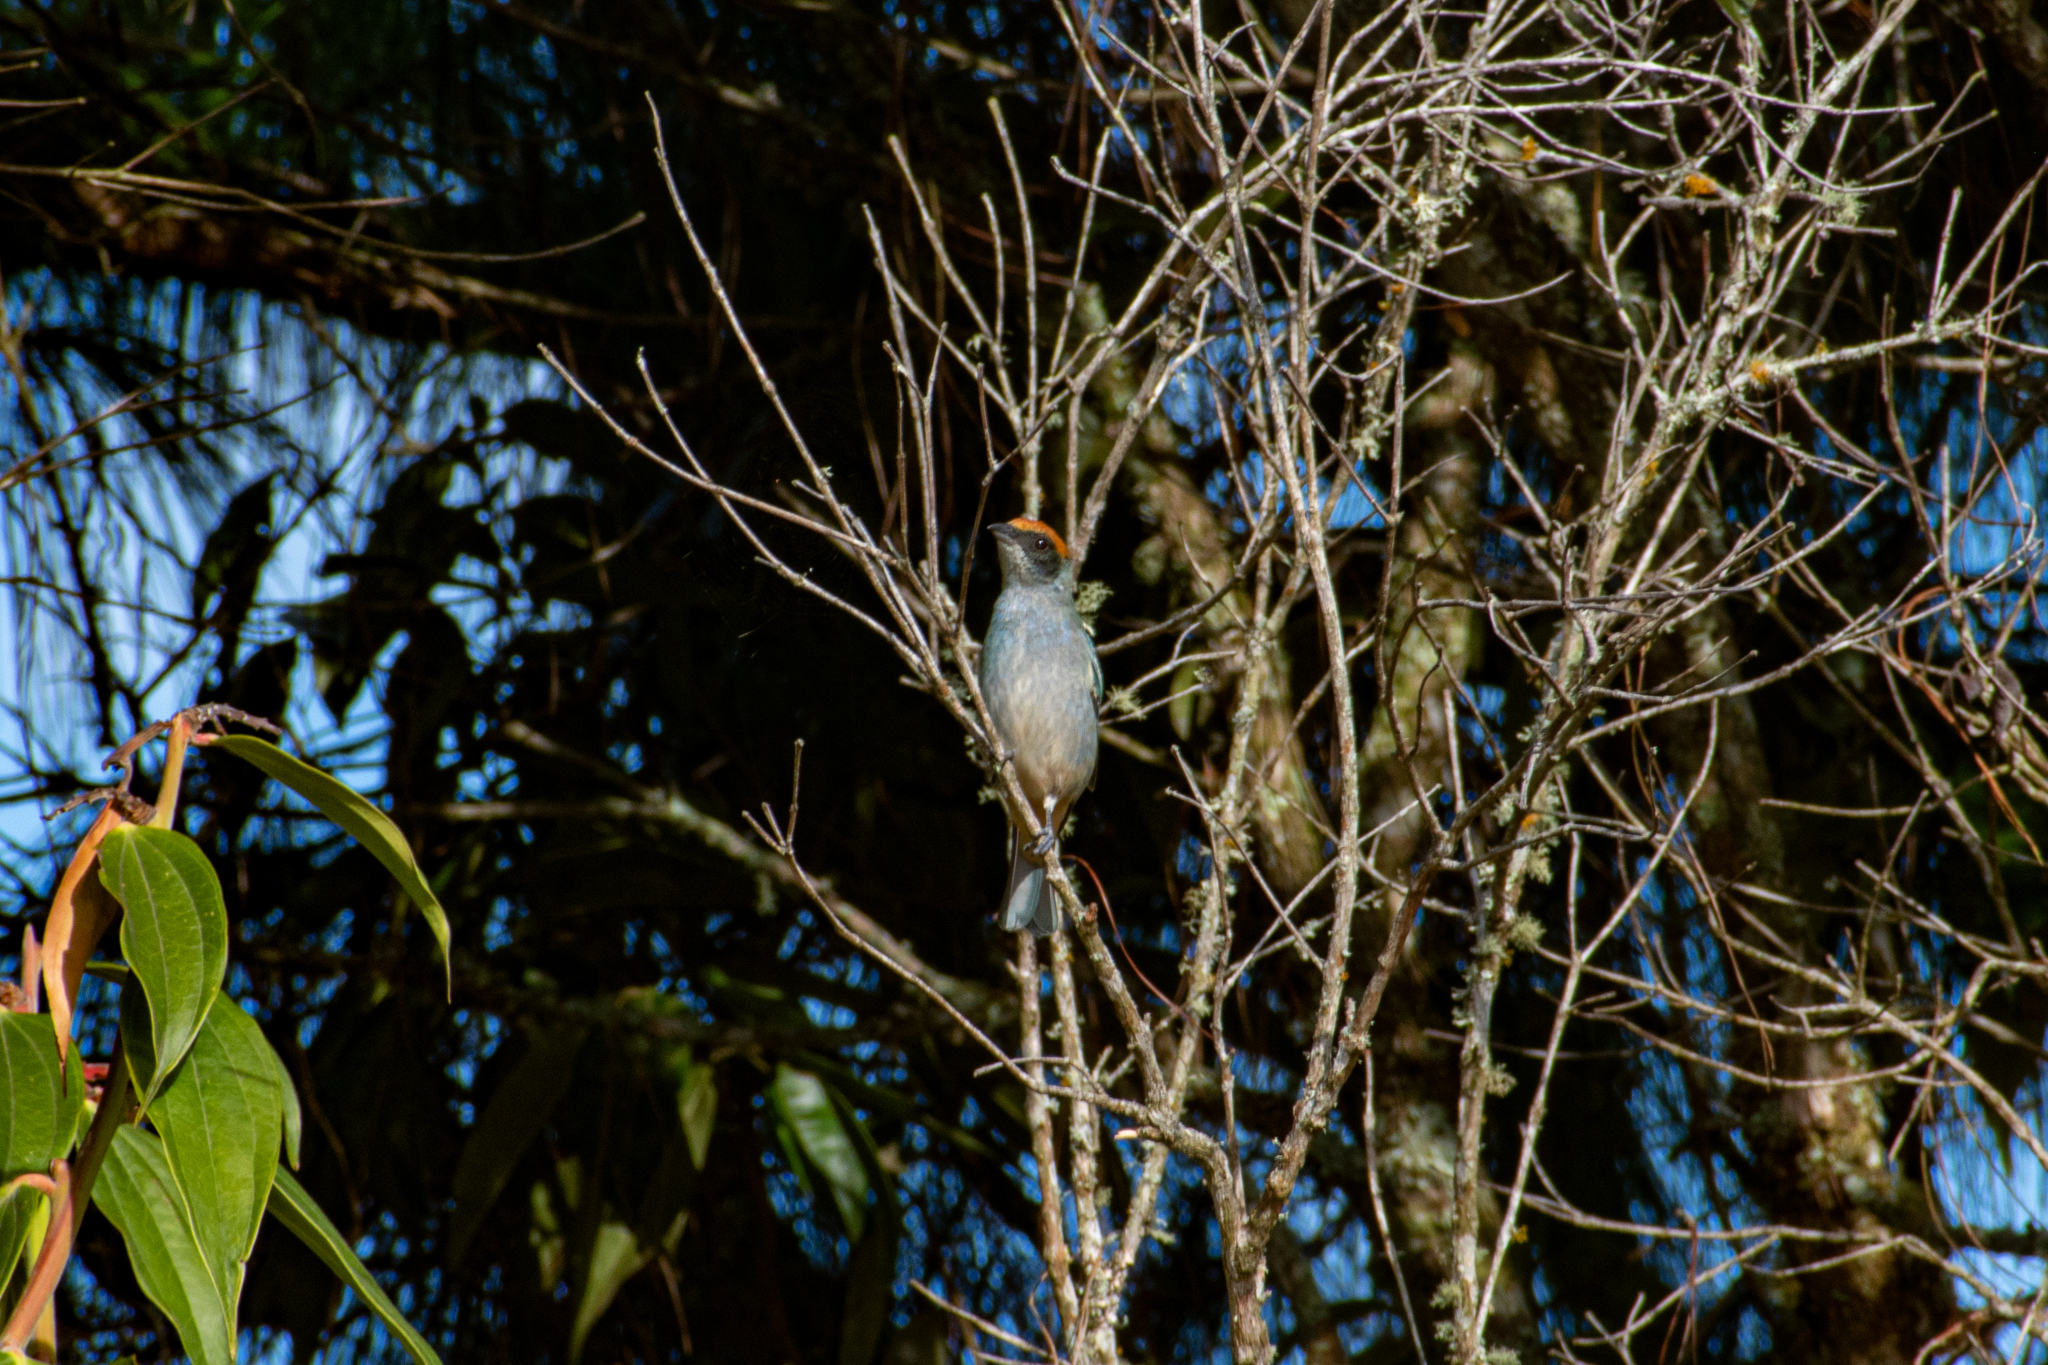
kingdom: Animalia
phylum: Chordata
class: Aves
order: Passeriformes
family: Thraupidae
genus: Stilpnia
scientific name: Stilpnia vitriolina
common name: Scrub tanager
